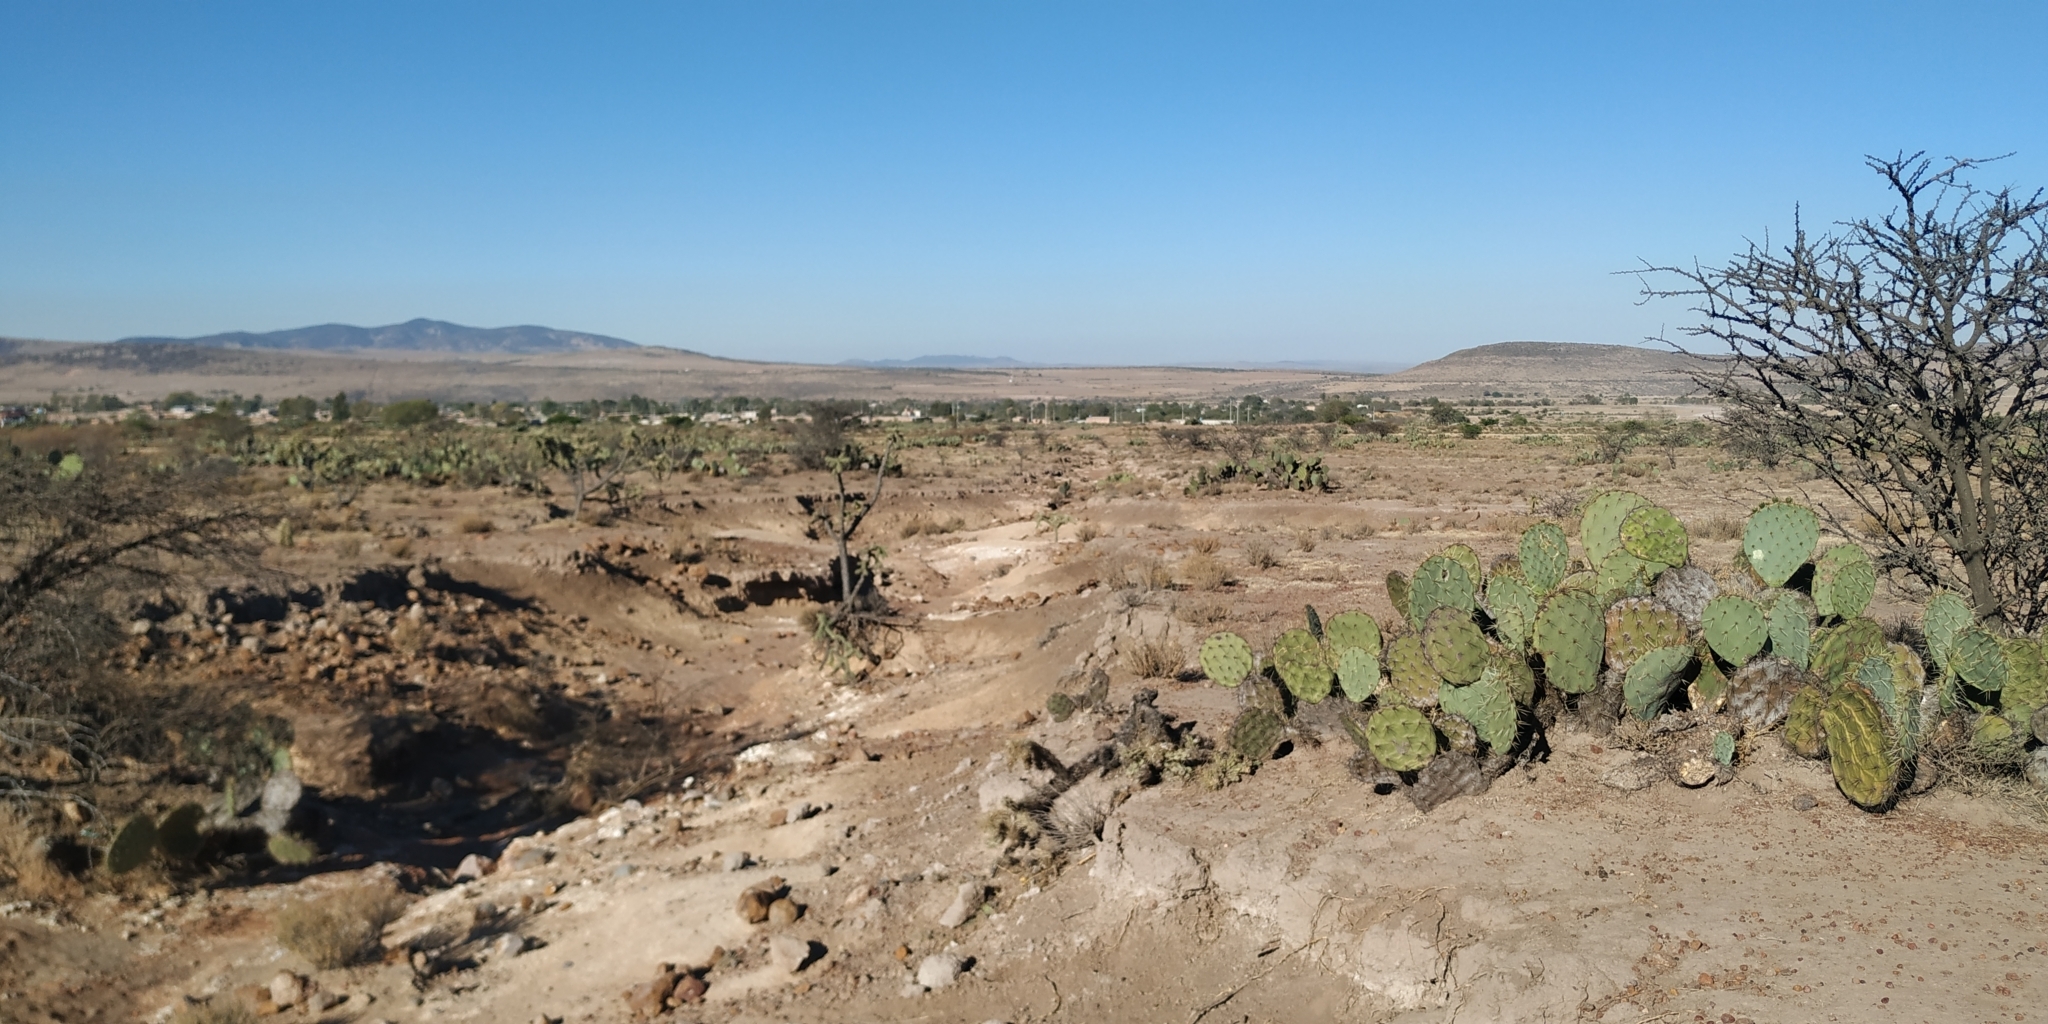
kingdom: Plantae
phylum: Tracheophyta
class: Magnoliopsida
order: Caryophyllales
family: Cactaceae
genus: Opuntia
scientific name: Opuntia rastrera
